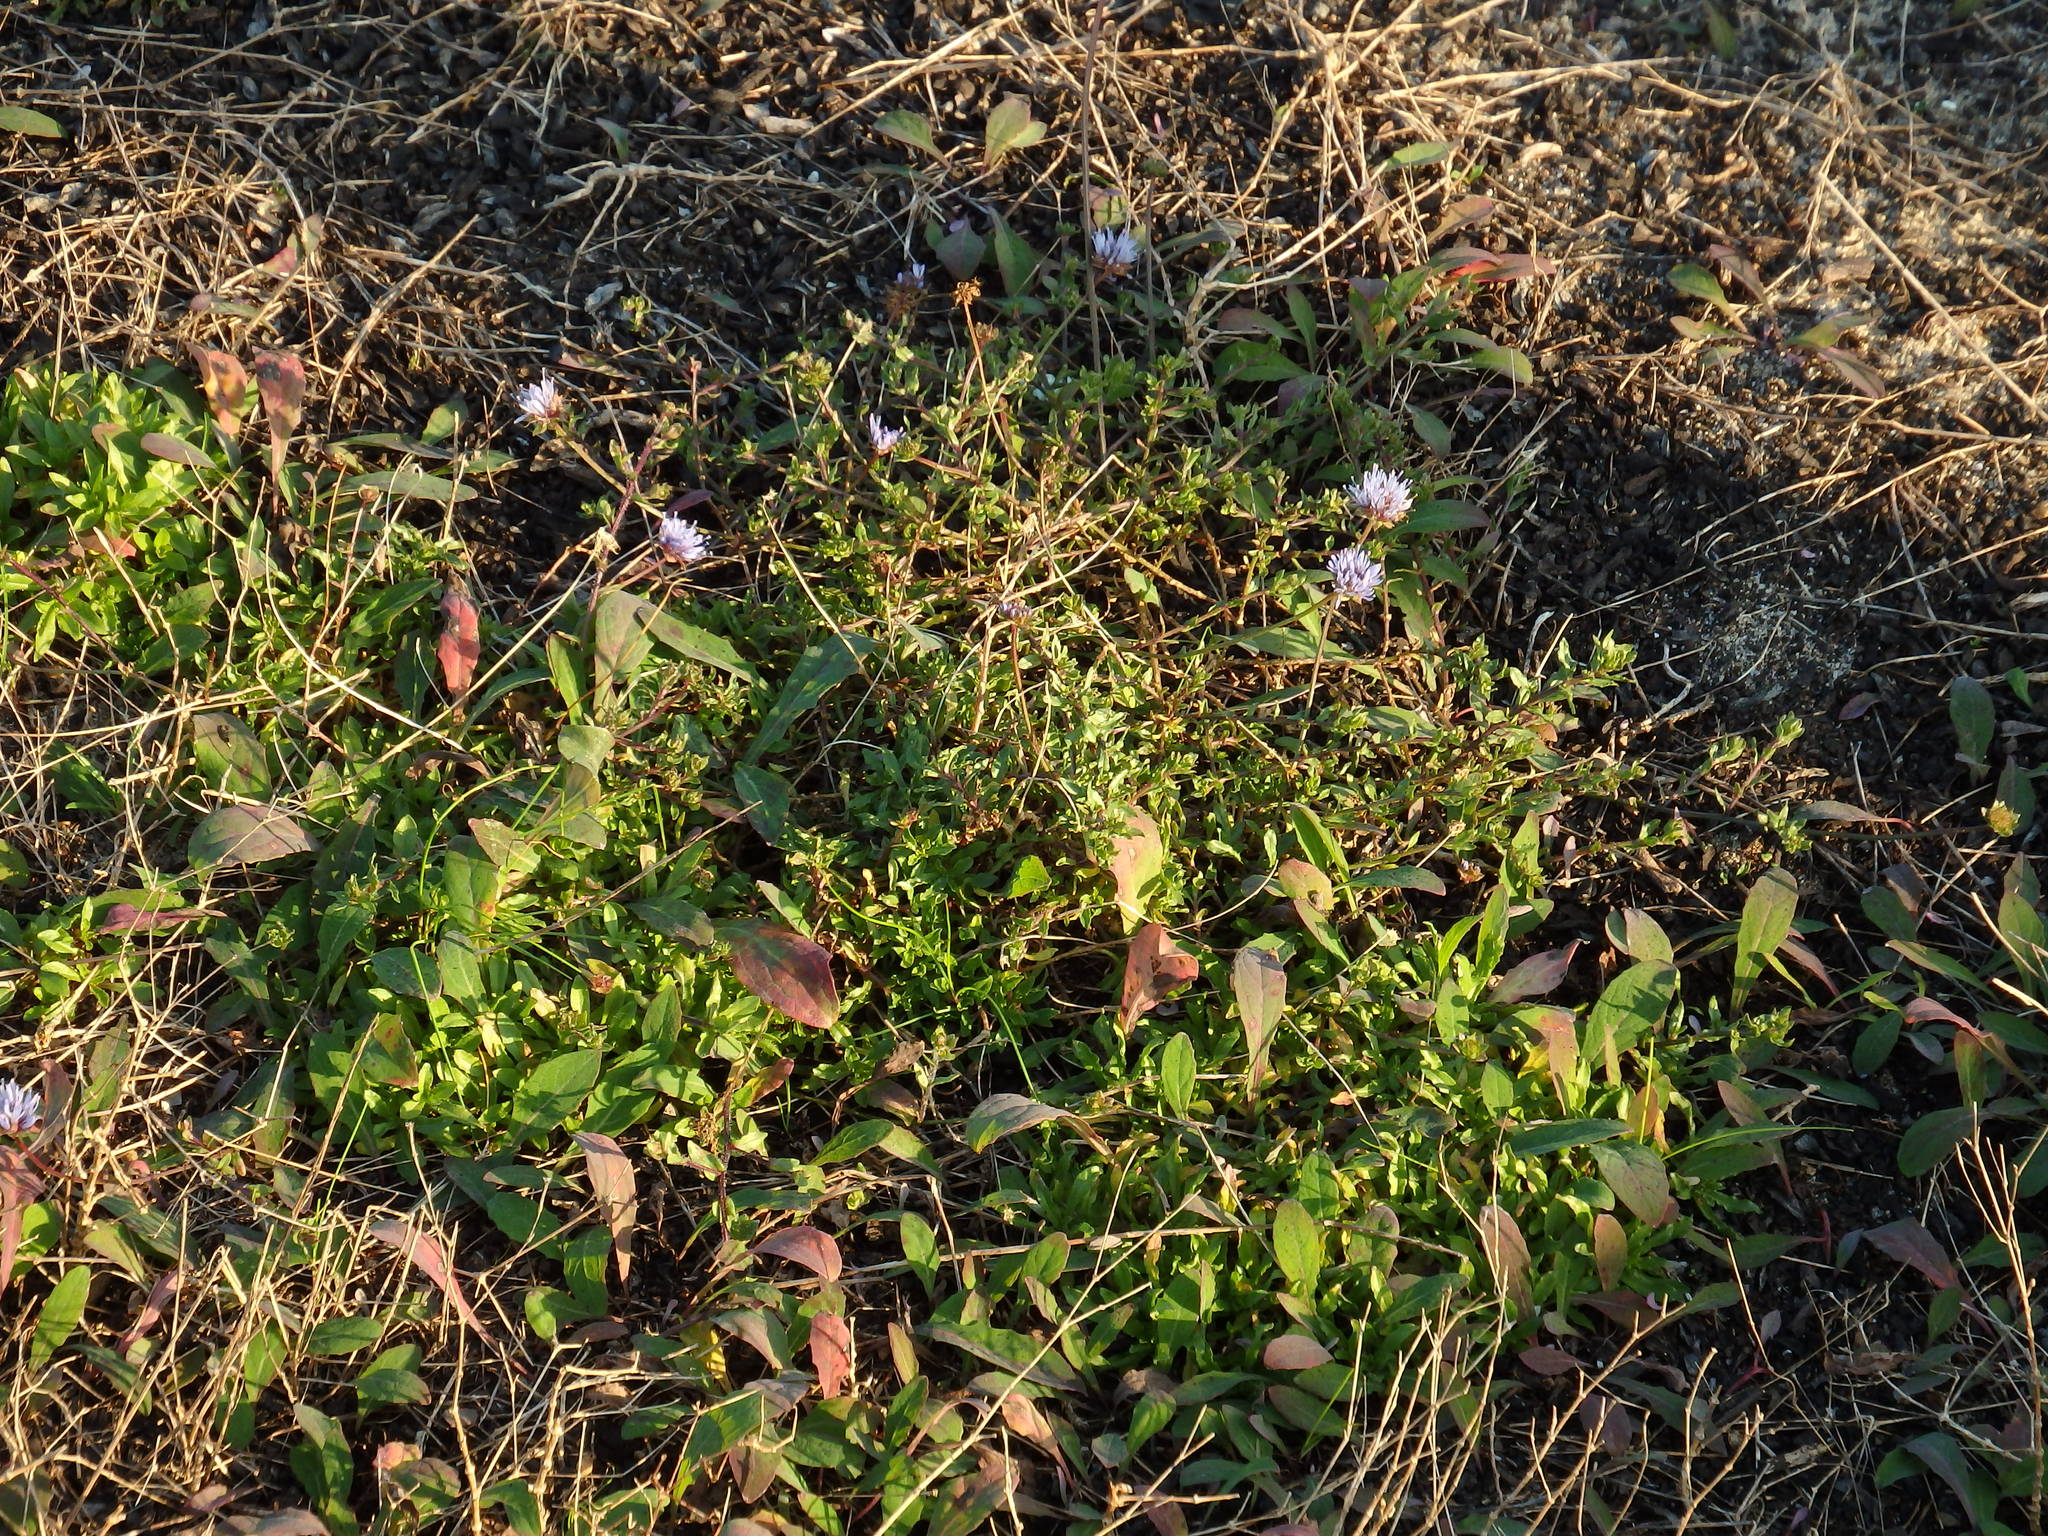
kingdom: Plantae
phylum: Tracheophyta
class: Magnoliopsida
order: Asterales
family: Campanulaceae
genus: Jasione
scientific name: Jasione maritima
